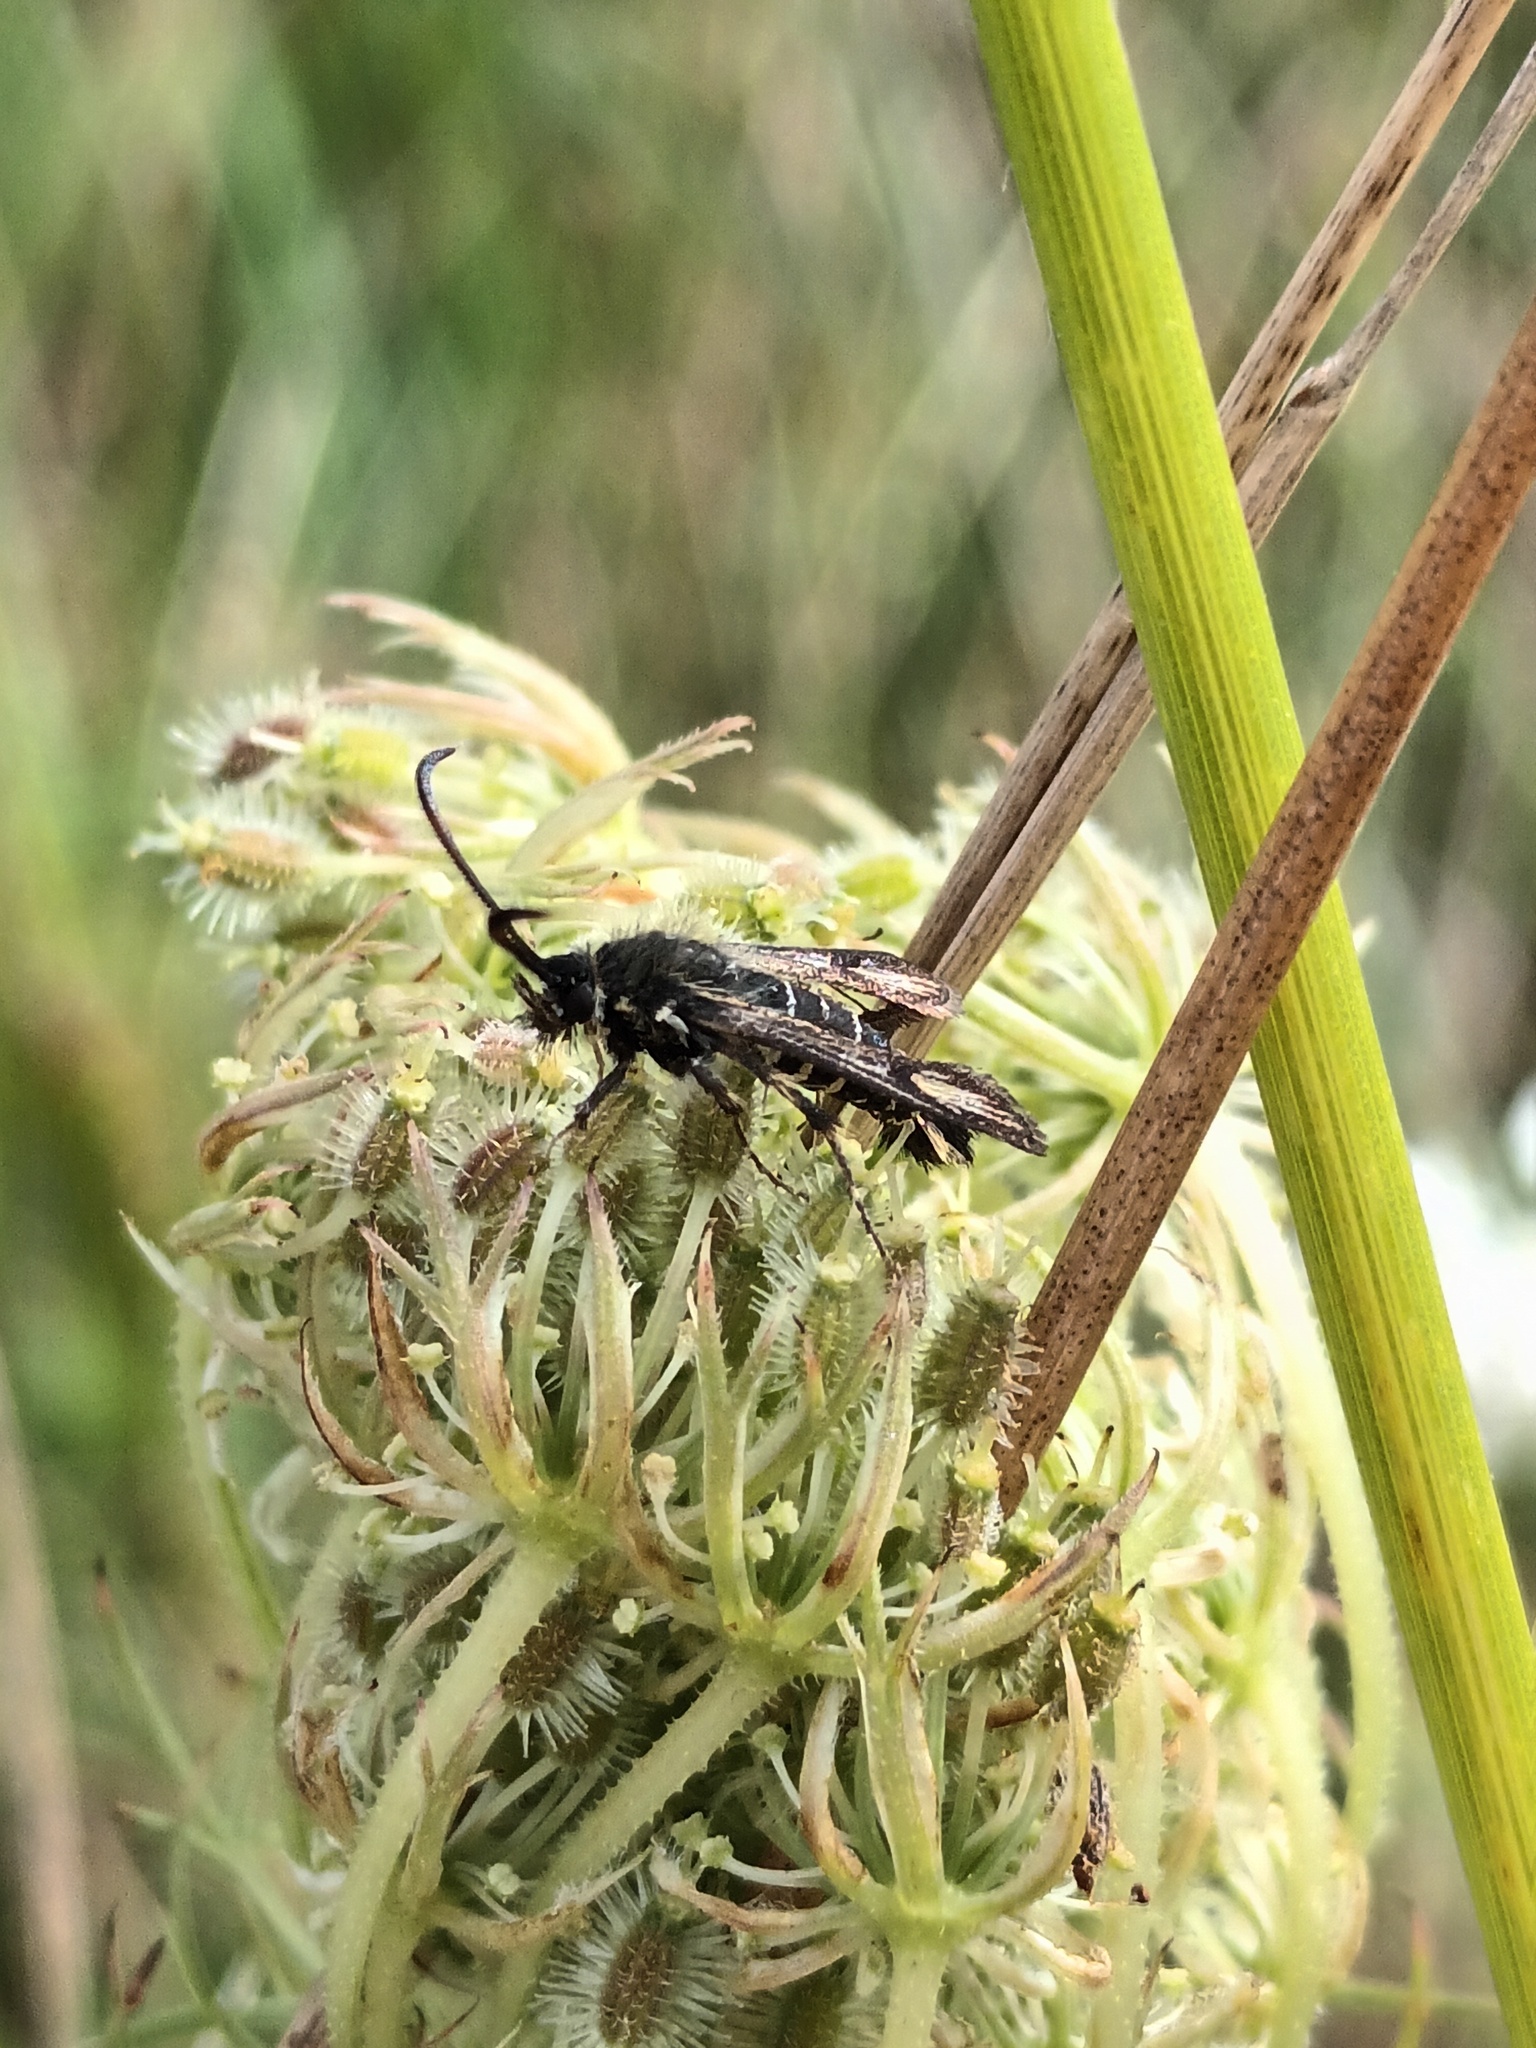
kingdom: Animalia
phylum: Arthropoda
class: Insecta
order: Lepidoptera
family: Sesiidae
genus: Bembecia
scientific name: Bembecia ichneumoniformis
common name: Six-belted clearwing
